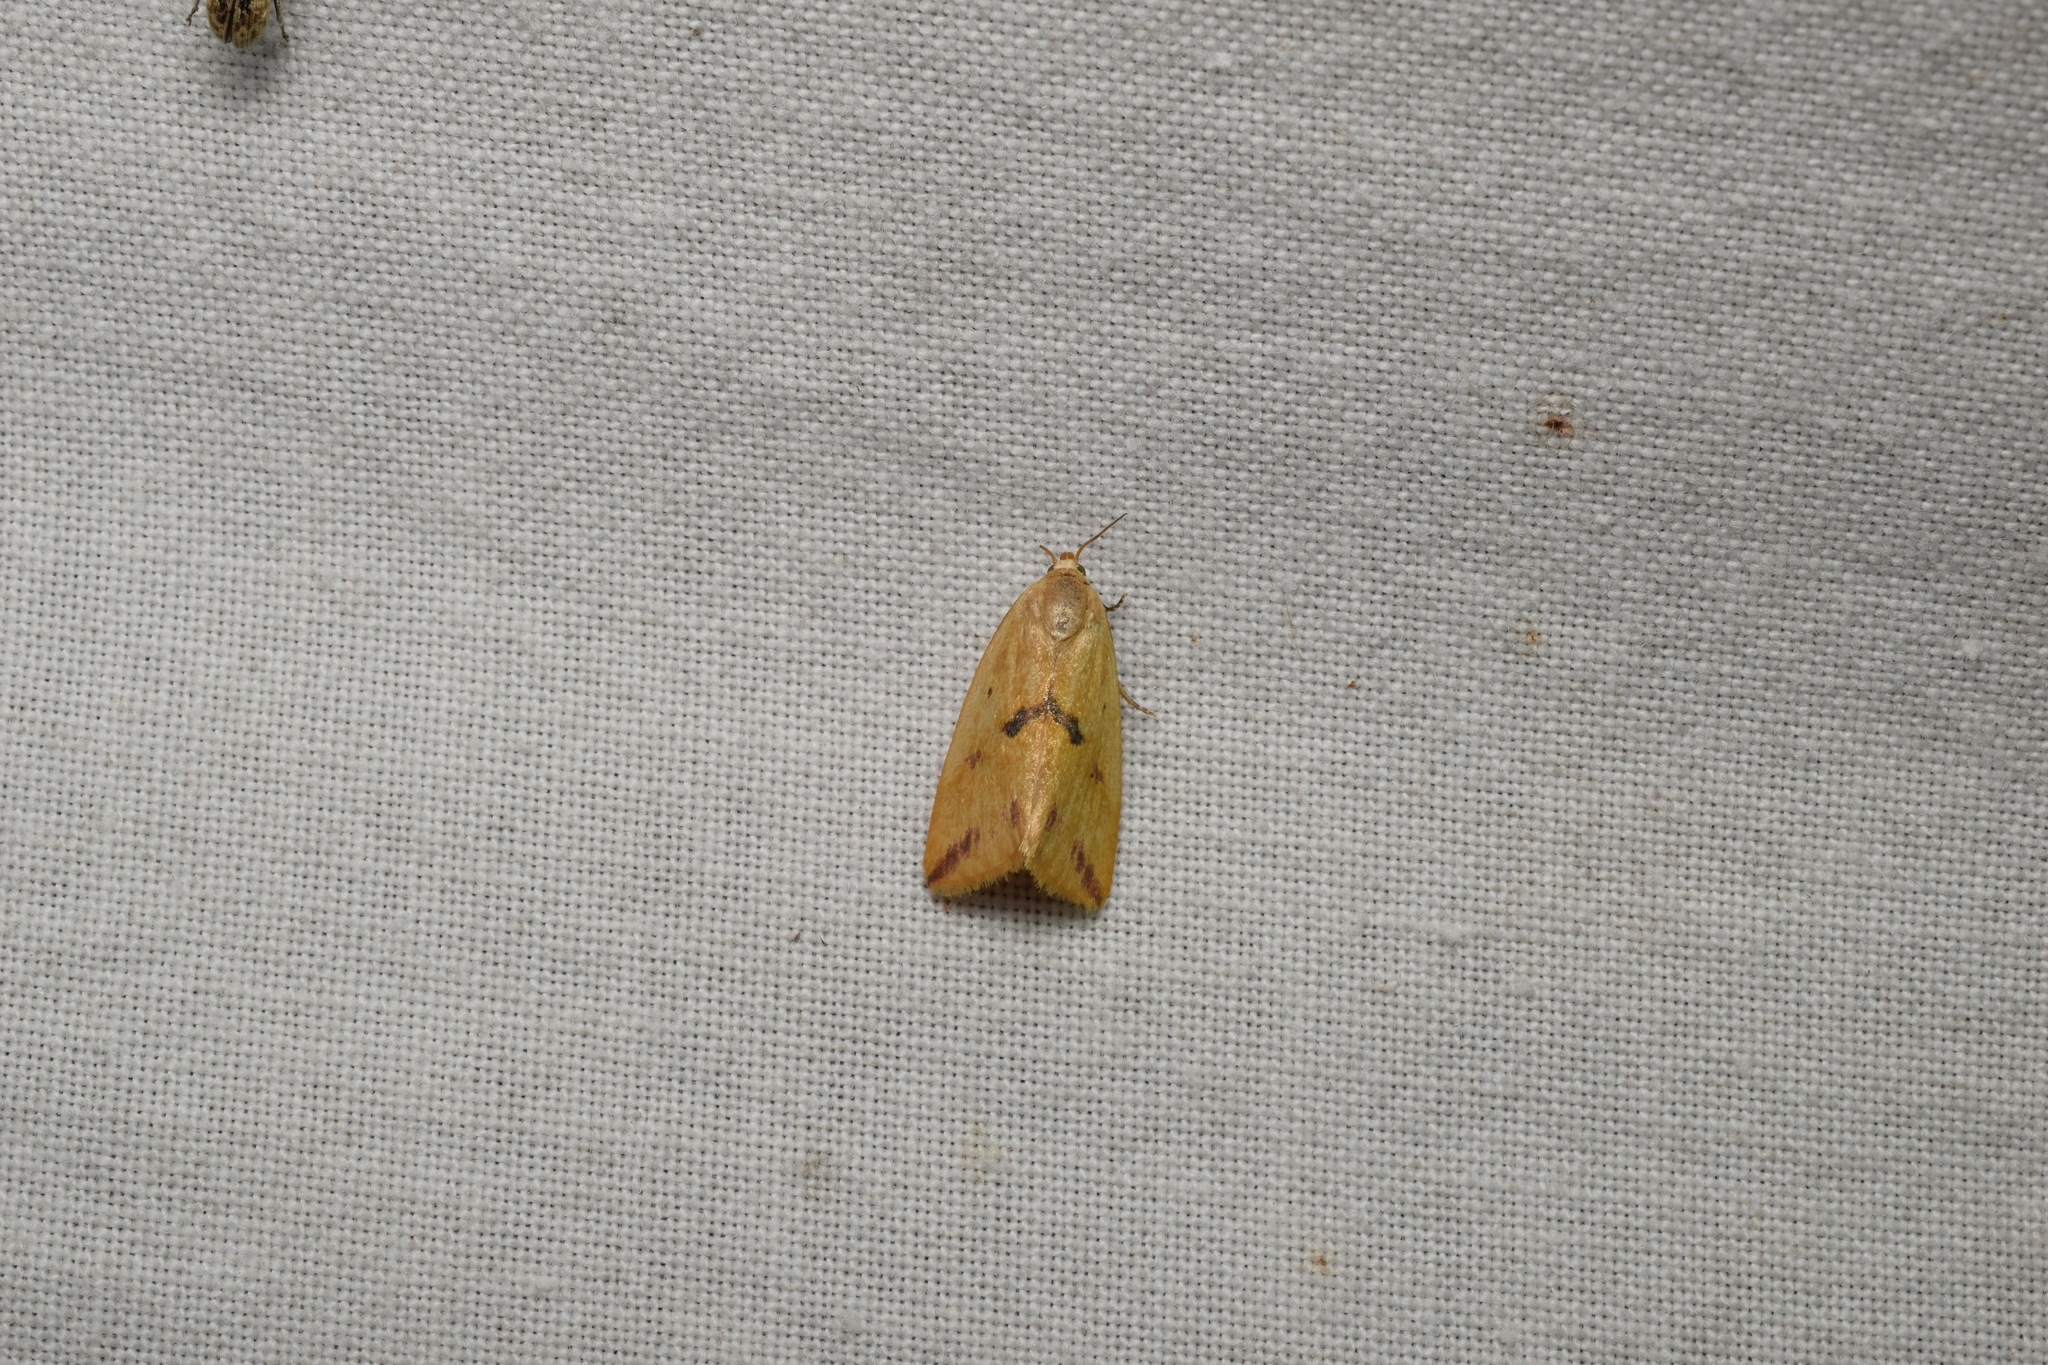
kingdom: Animalia
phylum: Arthropoda
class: Insecta
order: Lepidoptera
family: Noctuidae
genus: Naranga
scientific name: Naranga aenescens
